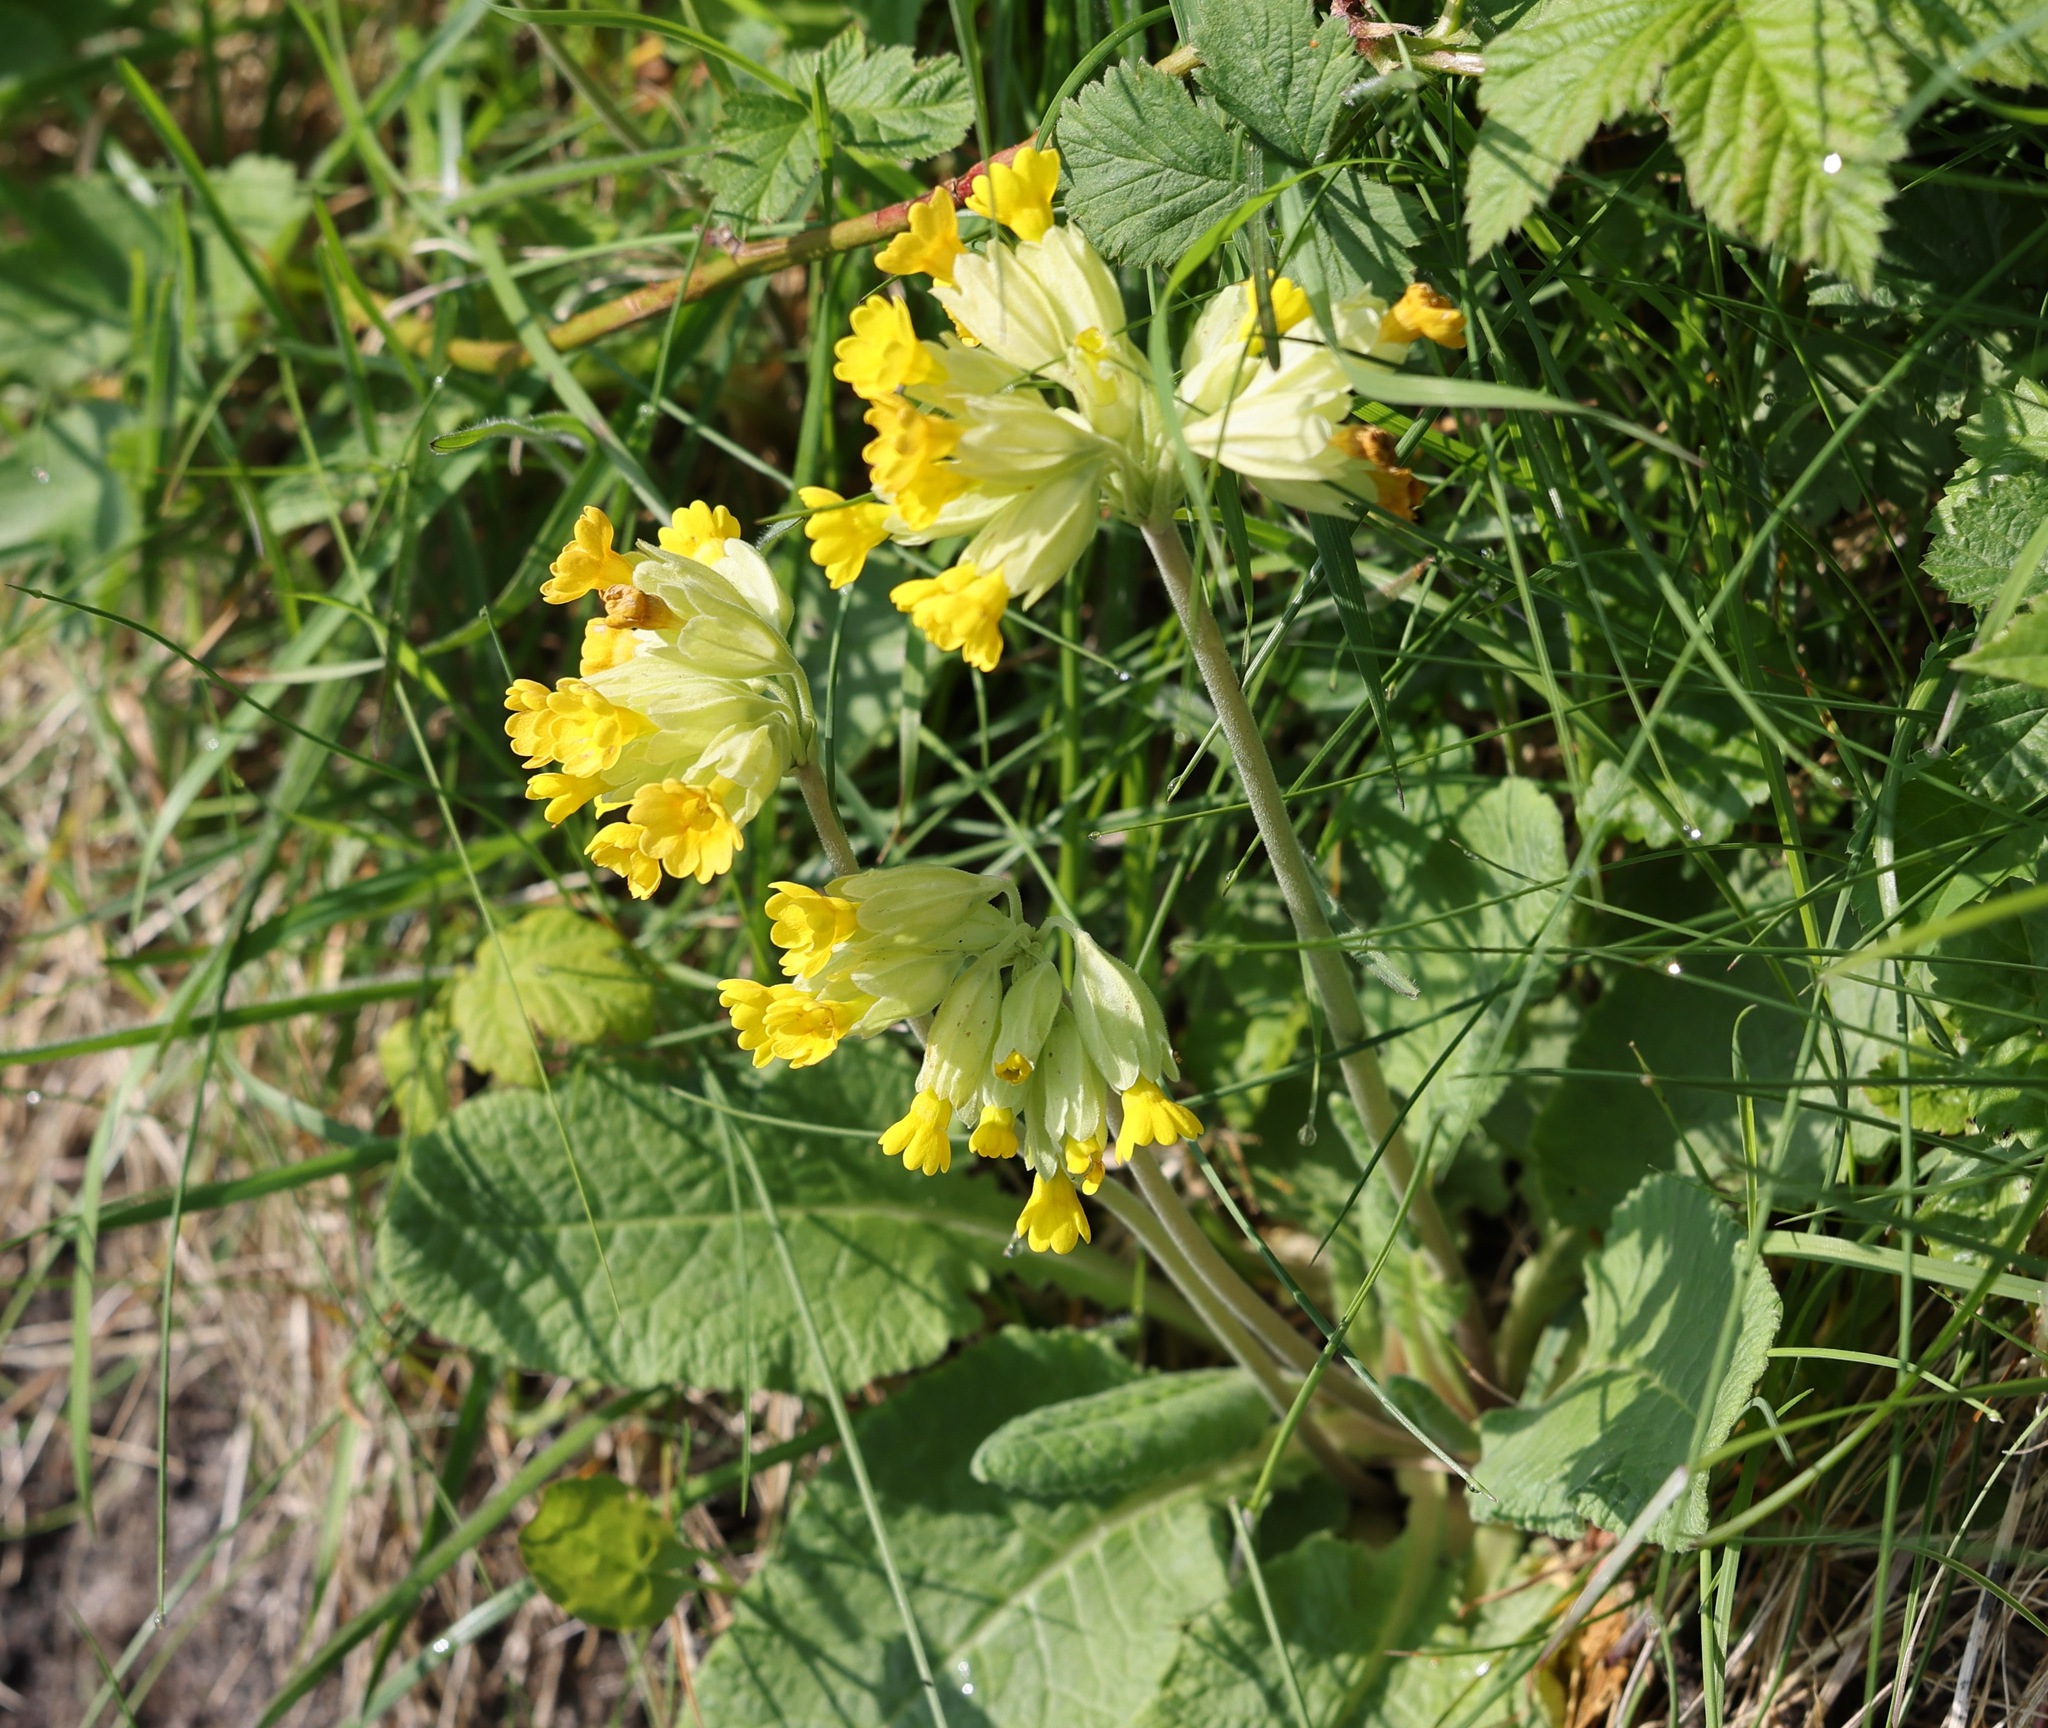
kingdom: Plantae
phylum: Tracheophyta
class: Magnoliopsida
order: Ericales
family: Primulaceae
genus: Primula
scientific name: Primula veris
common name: Cowslip
